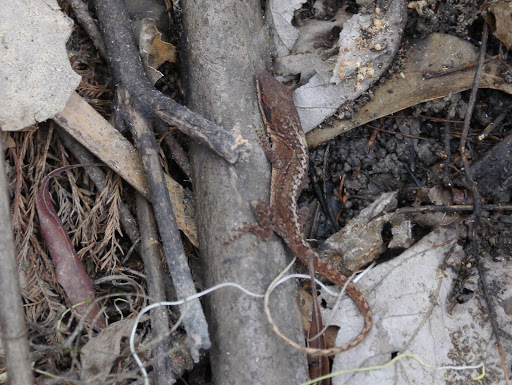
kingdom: Animalia
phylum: Chordata
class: Squamata
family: Dactyloidae
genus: Anolis
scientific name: Anolis carolinensis
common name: Green anole
